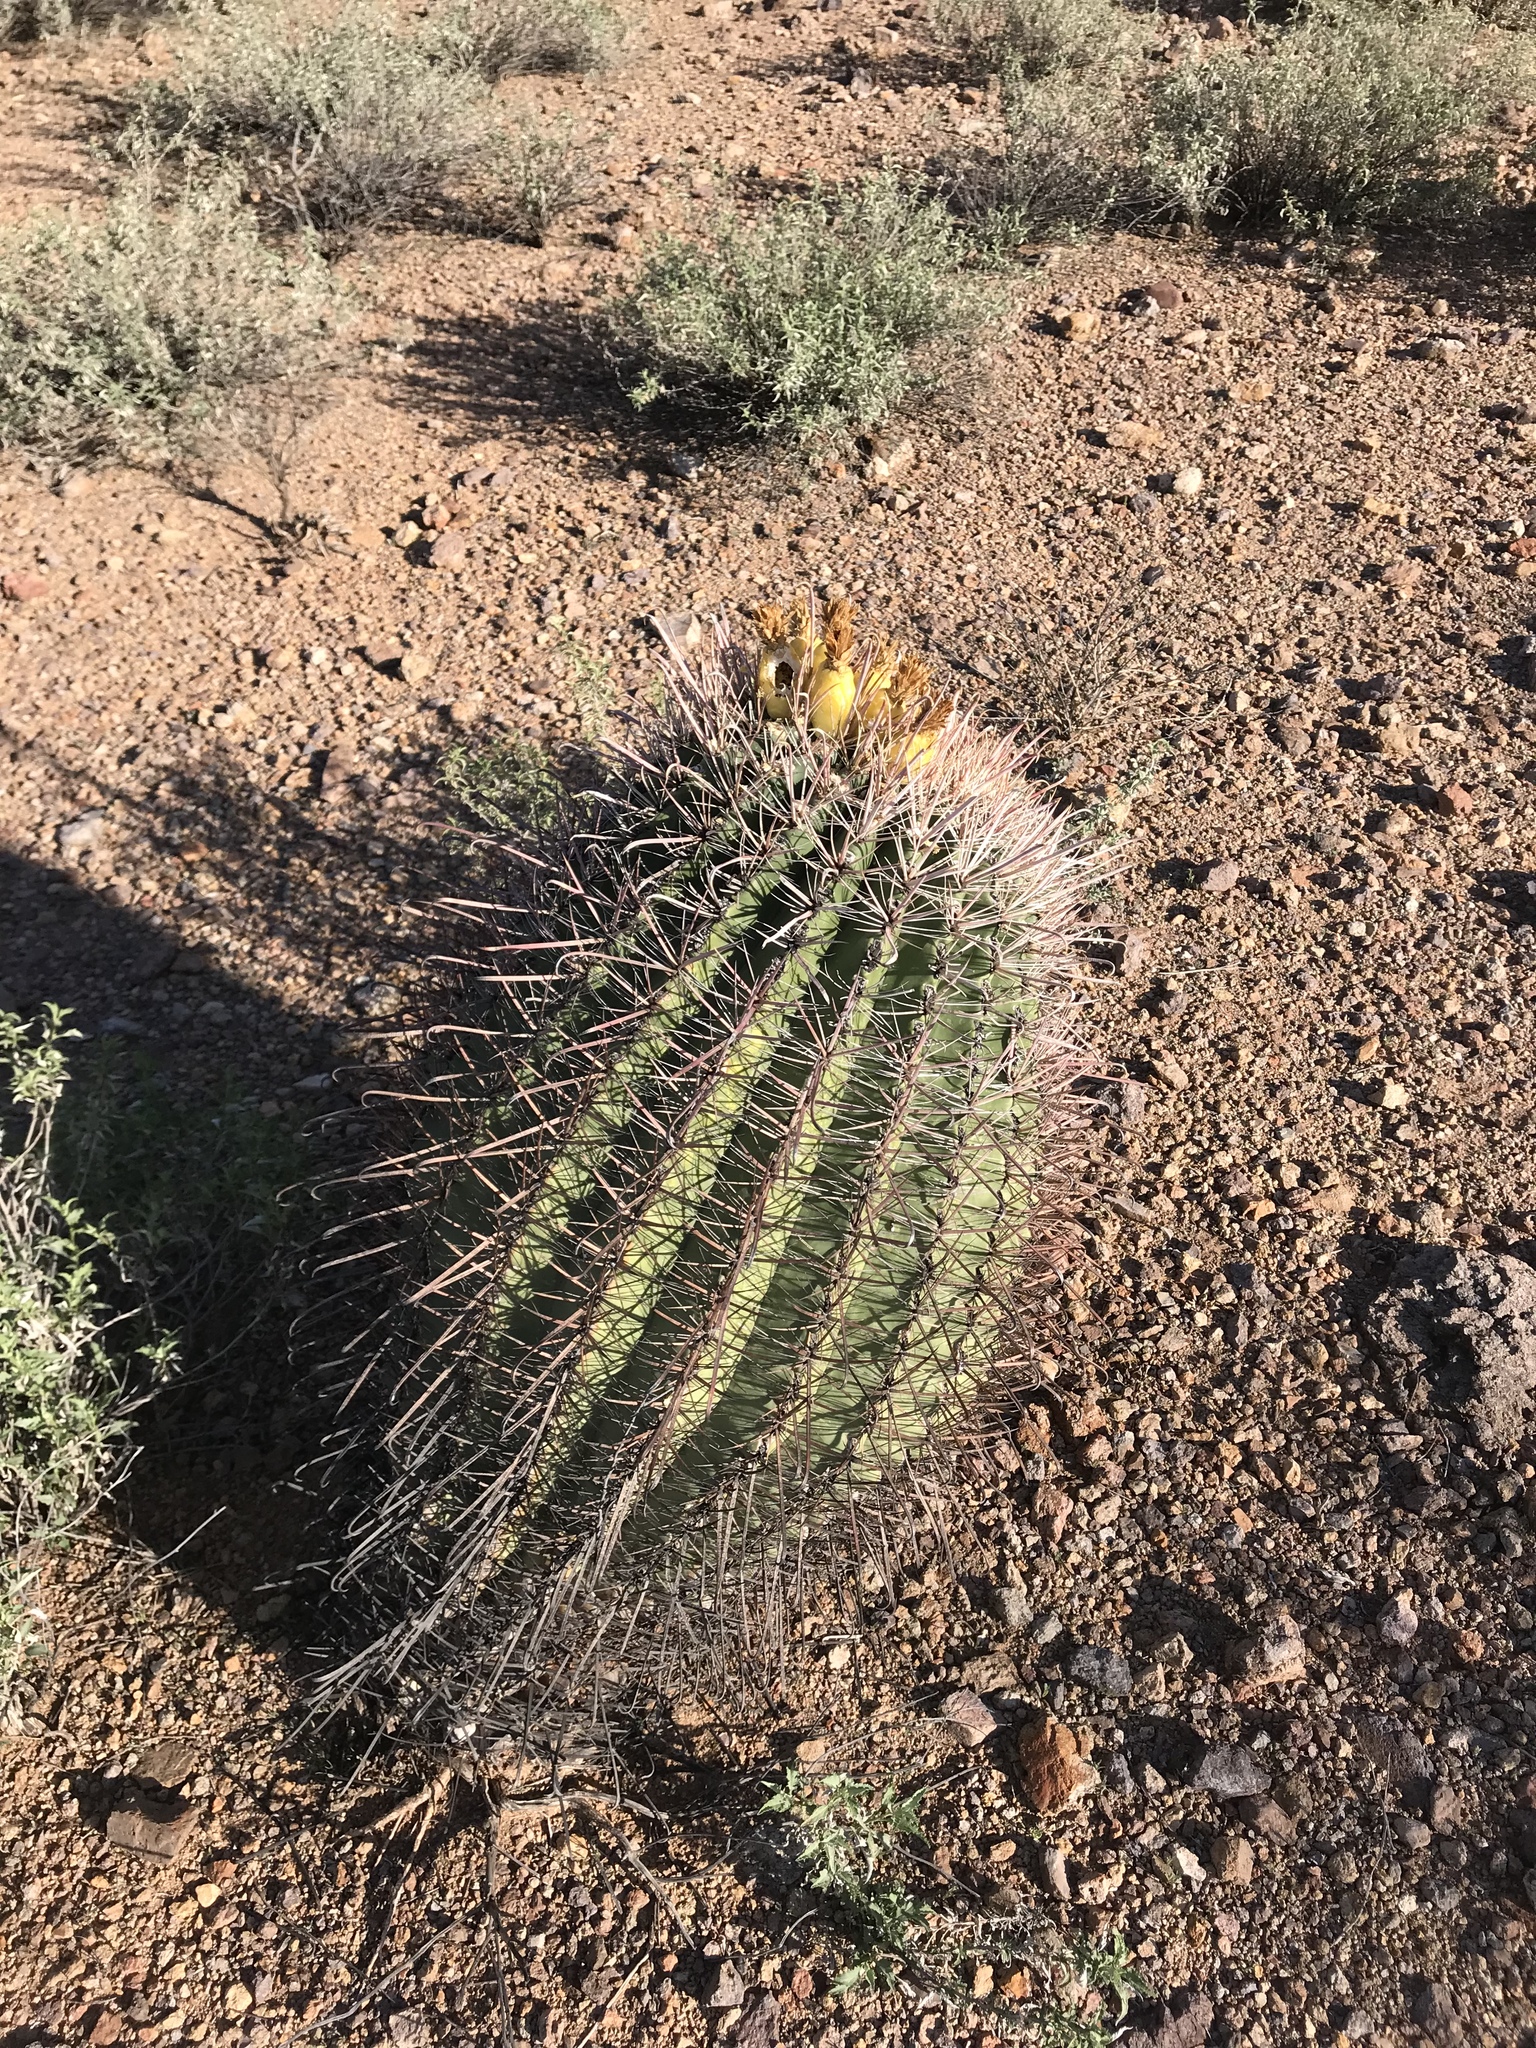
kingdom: Plantae
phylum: Tracheophyta
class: Magnoliopsida
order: Caryophyllales
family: Cactaceae
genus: Ferocactus
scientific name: Ferocactus wislizeni
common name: Candy barrel cactus
